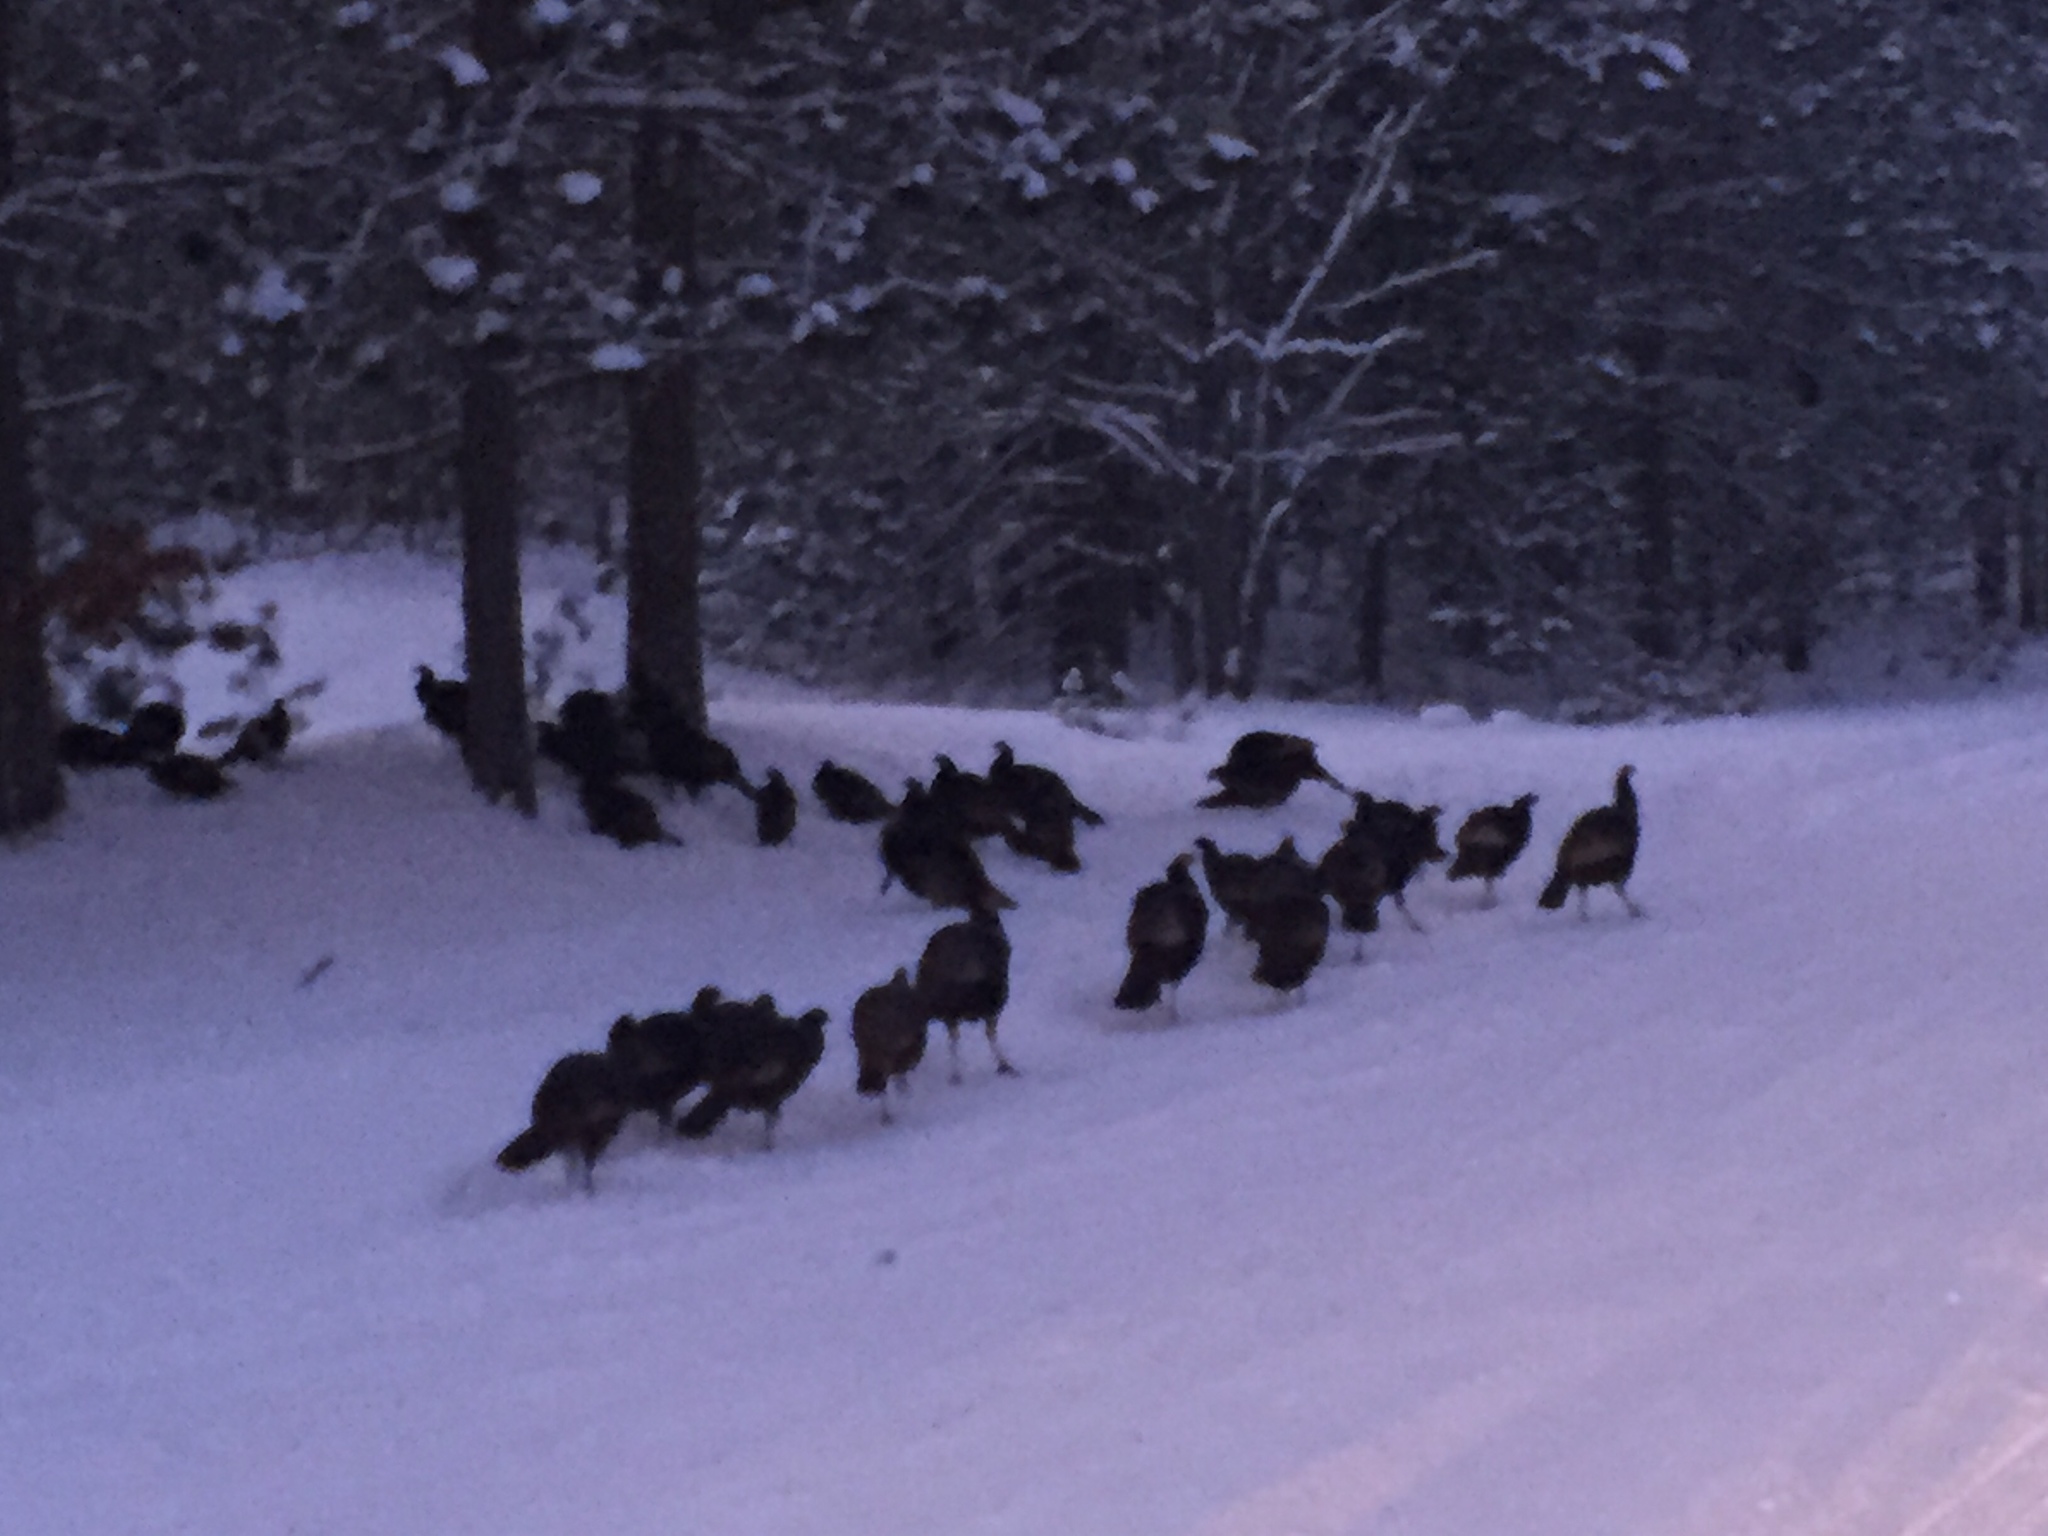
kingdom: Animalia
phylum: Chordata
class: Aves
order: Galliformes
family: Phasianidae
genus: Meleagris
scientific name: Meleagris gallopavo
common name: Wild turkey
